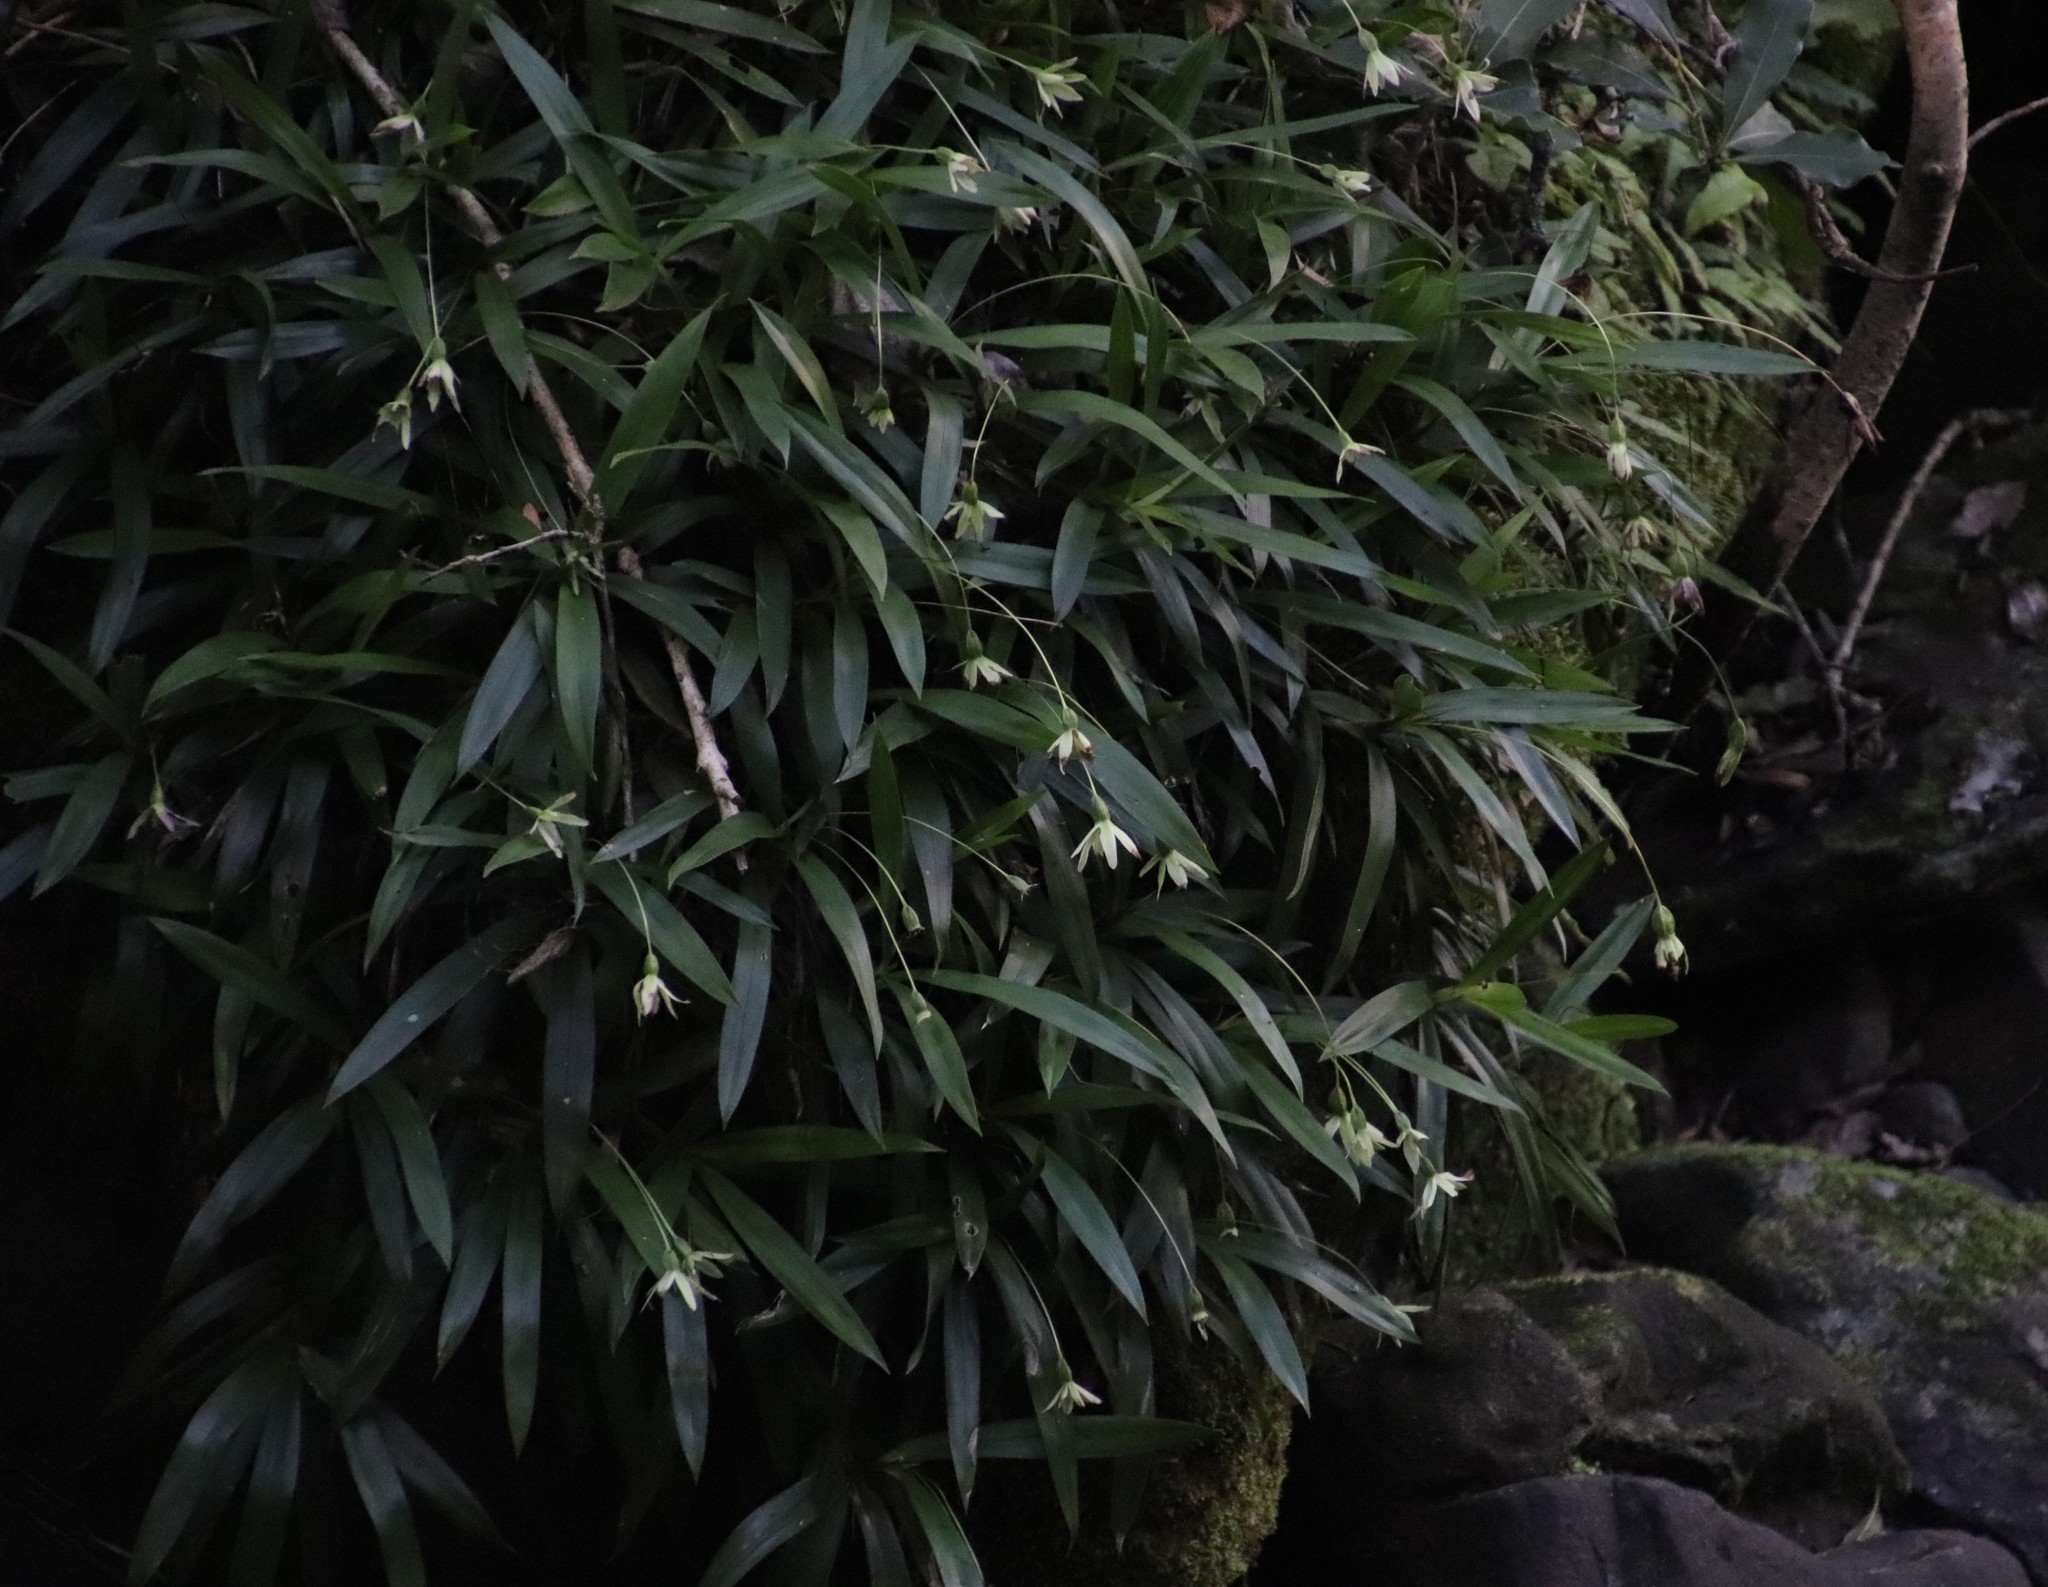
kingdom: Plantae
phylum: Tracheophyta
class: Liliopsida
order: Pandanales
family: Velloziaceae
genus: Xerophyta
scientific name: Xerophyta elegans
